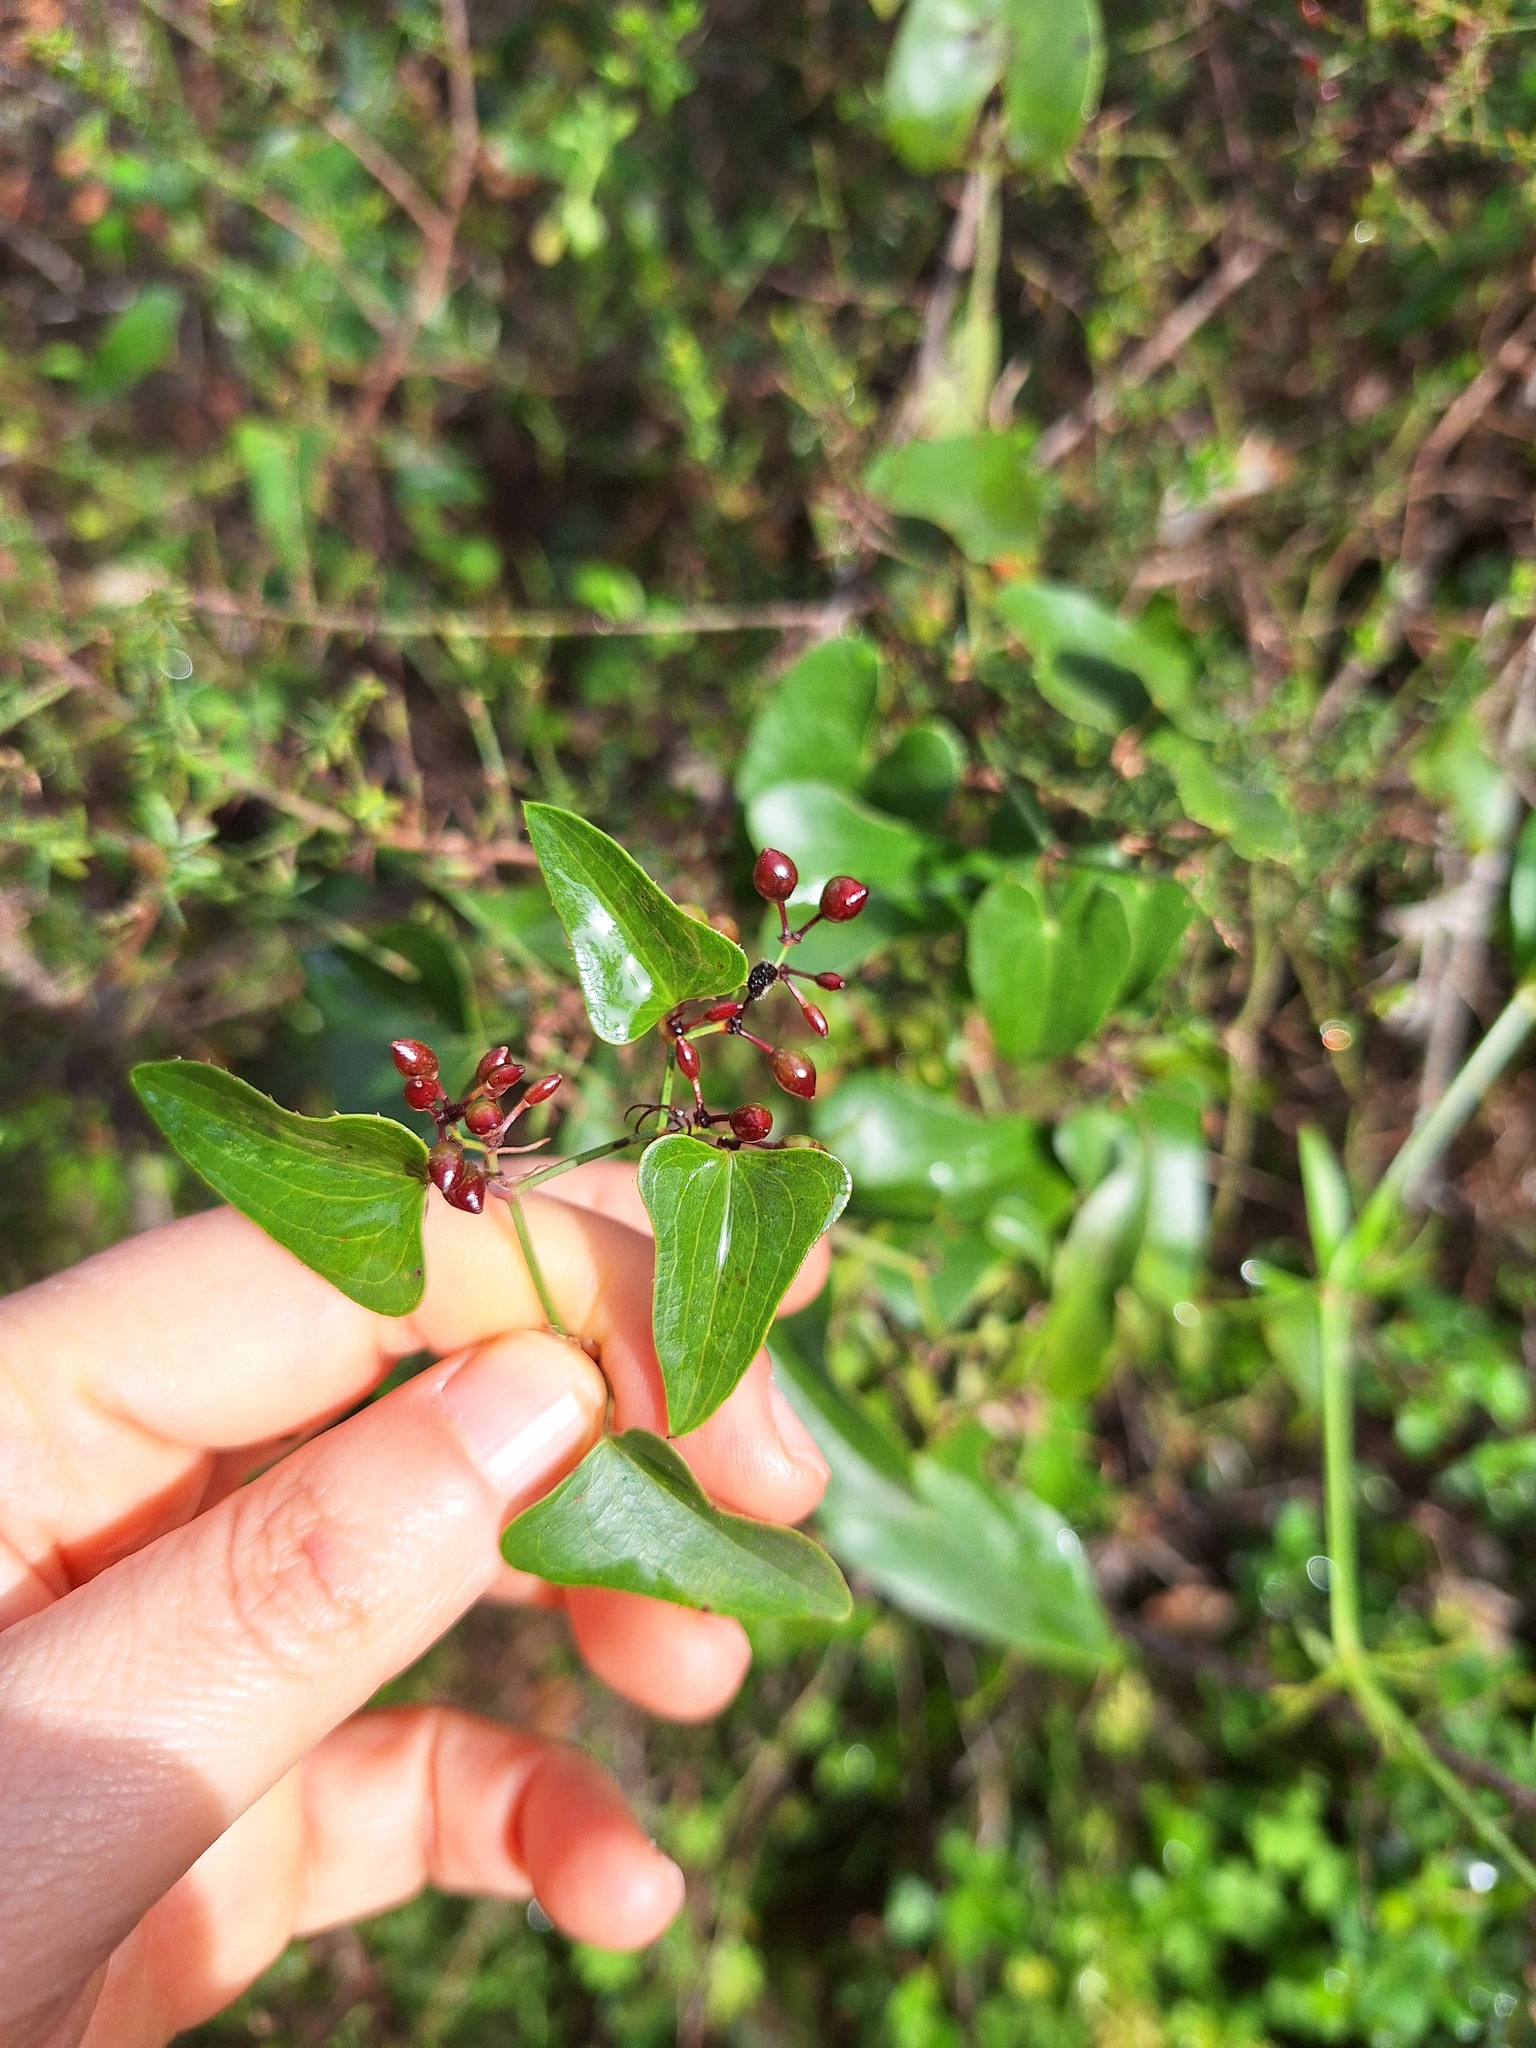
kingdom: Plantae
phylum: Tracheophyta
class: Liliopsida
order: Liliales
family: Smilacaceae
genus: Smilax
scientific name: Smilax aspera
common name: Common smilax
